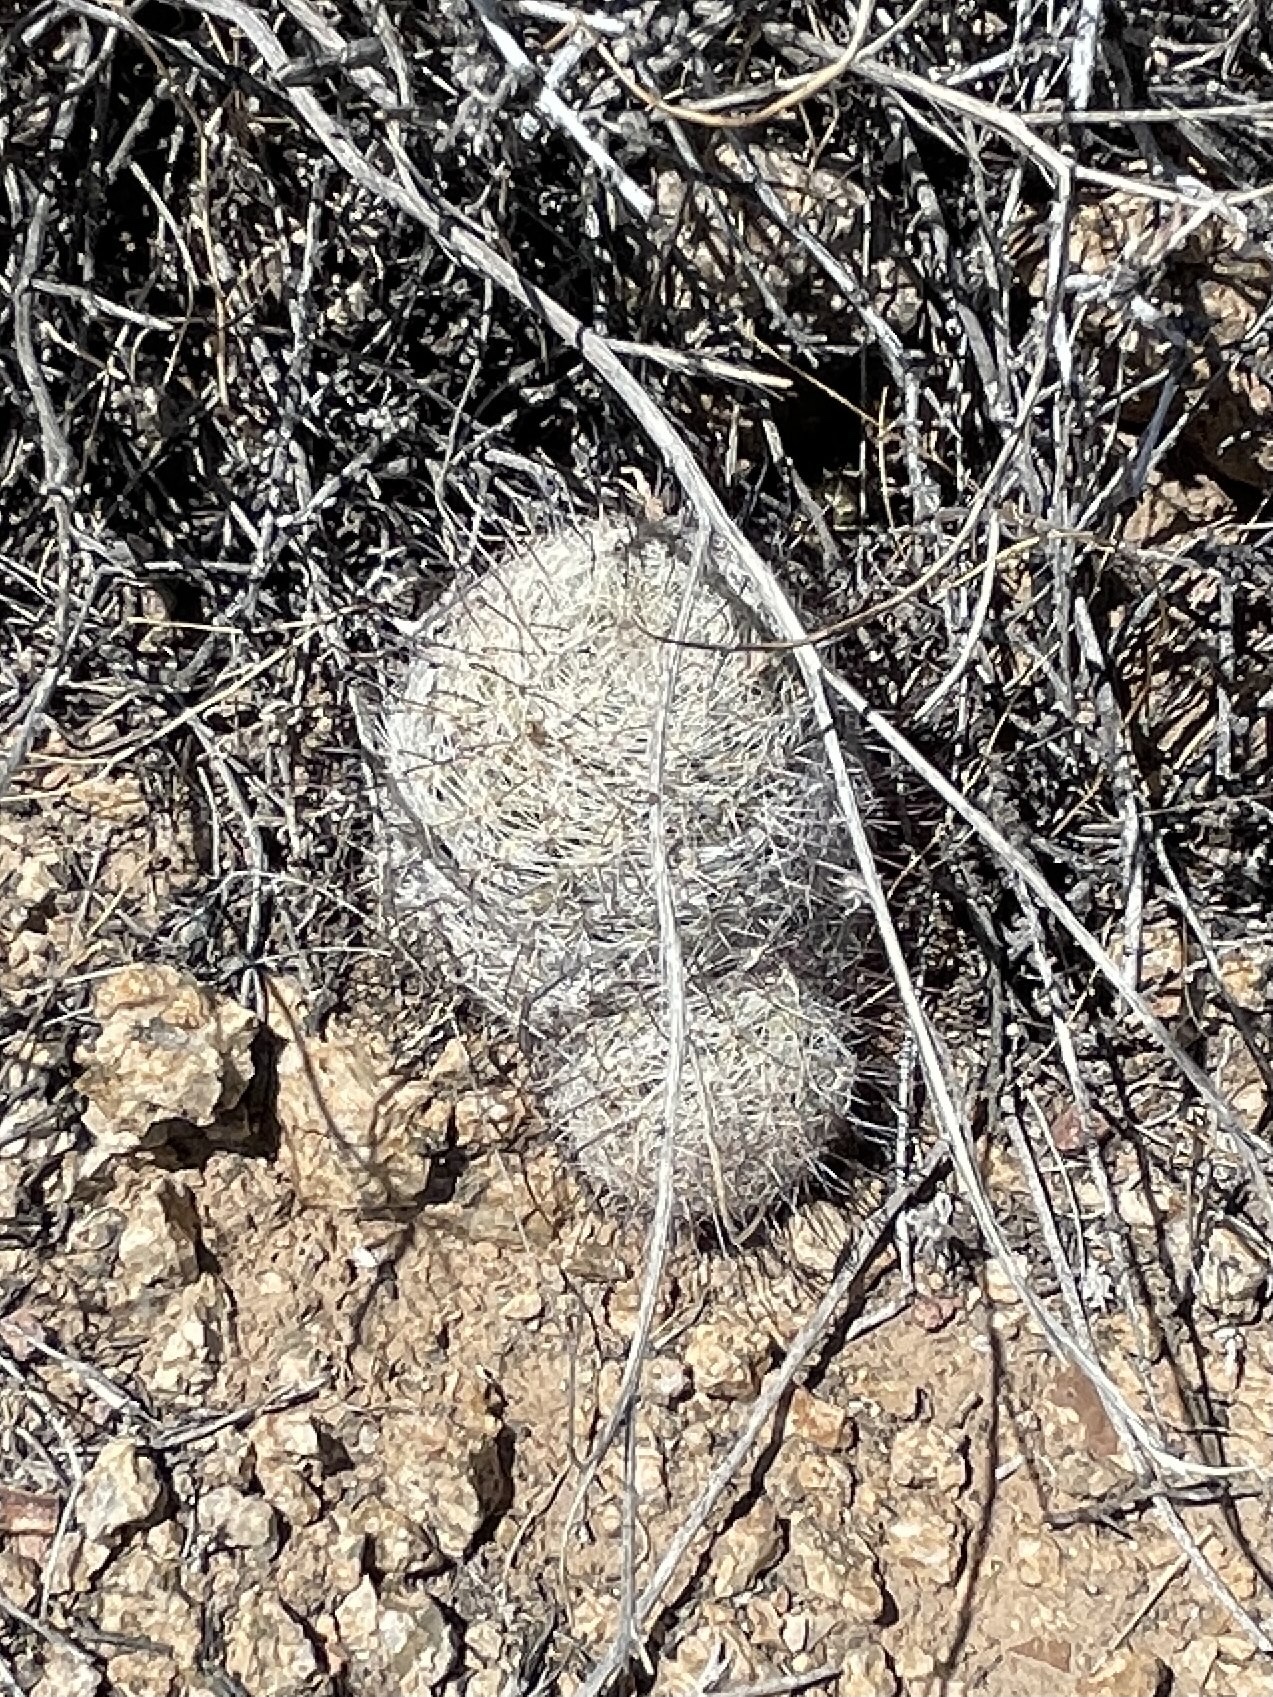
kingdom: Plantae
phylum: Tracheophyta
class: Magnoliopsida
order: Caryophyllales
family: Cactaceae
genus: Cochemiea
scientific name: Cochemiea grahamii
